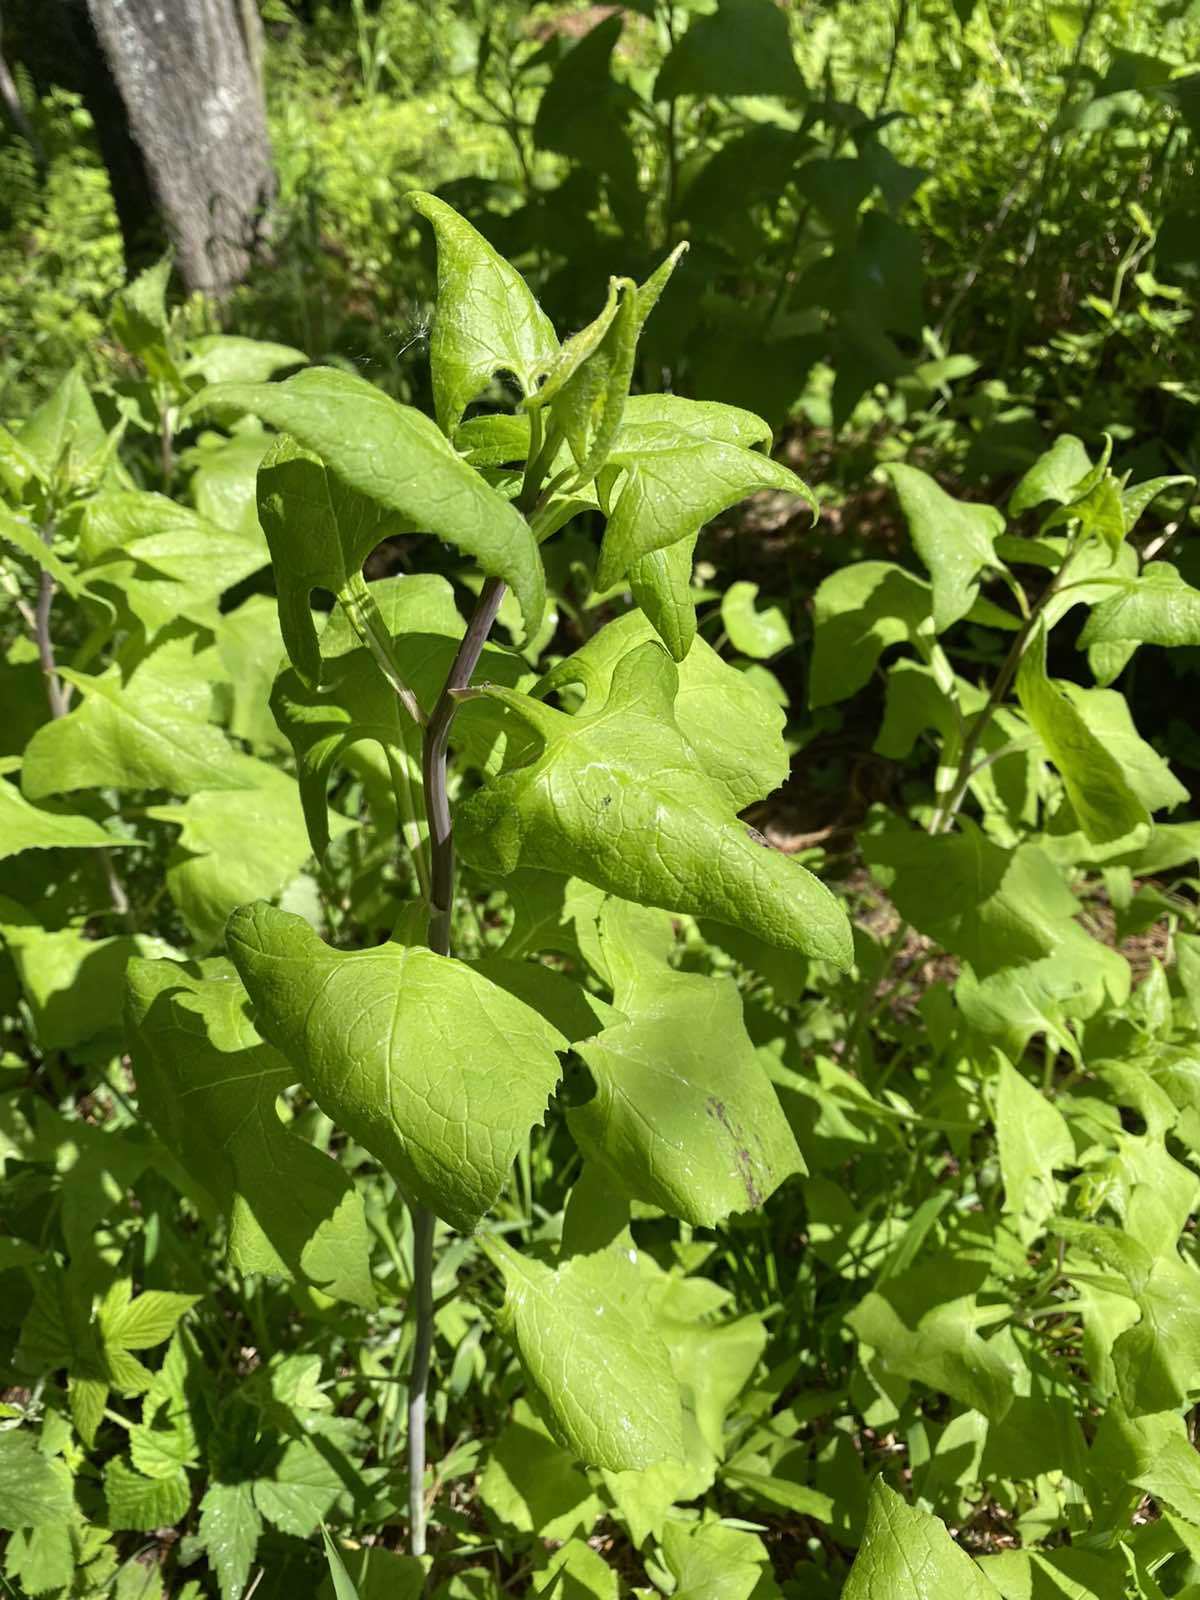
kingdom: Plantae
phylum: Tracheophyta
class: Magnoliopsida
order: Asterales
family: Asteraceae
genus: Parasenecio
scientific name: Parasenecio hastatus
